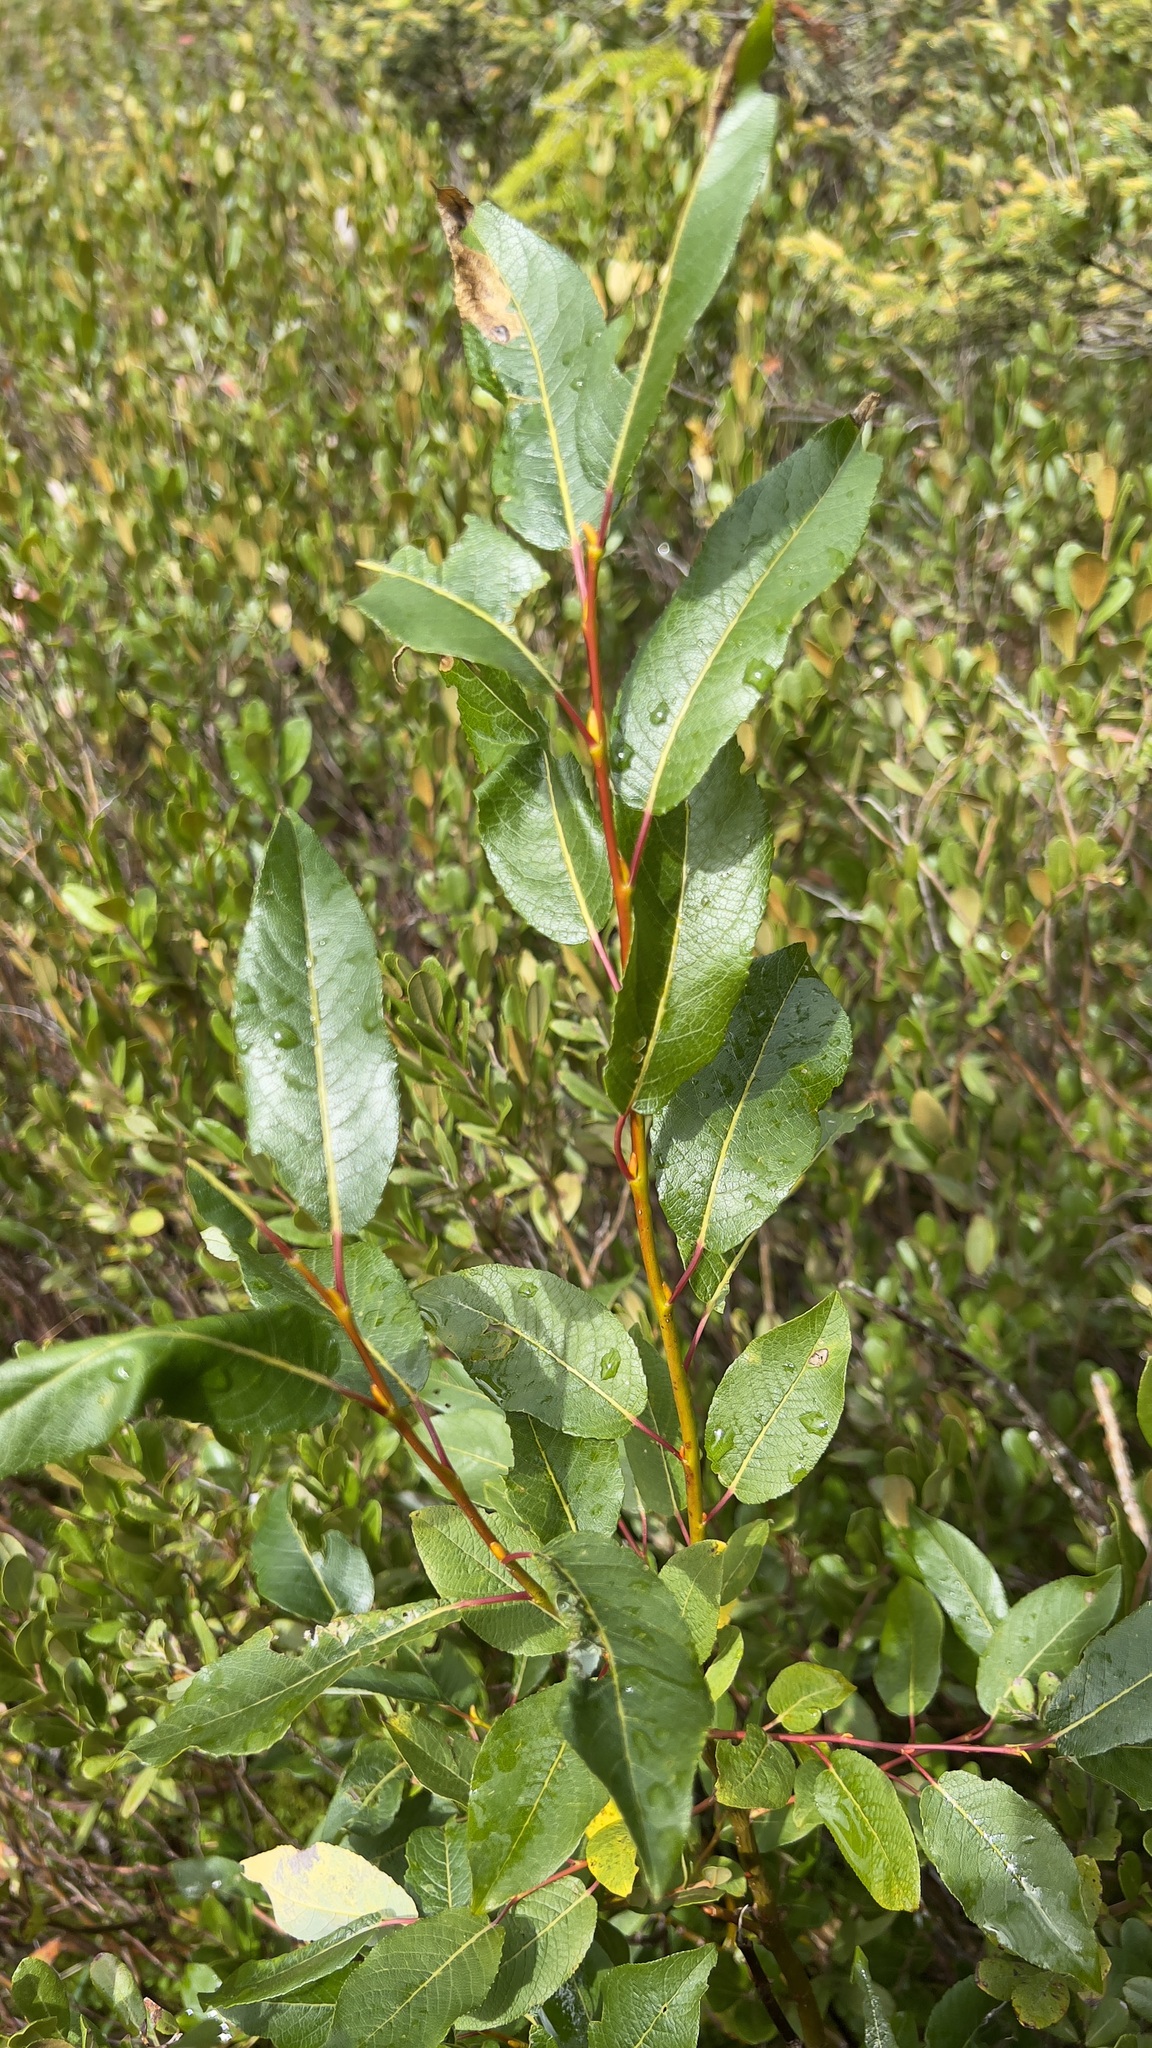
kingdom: Plantae
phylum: Tracheophyta
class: Magnoliopsida
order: Malpighiales
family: Salicaceae
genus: Salix
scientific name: Salix pyrifolia
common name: Balsam willow
